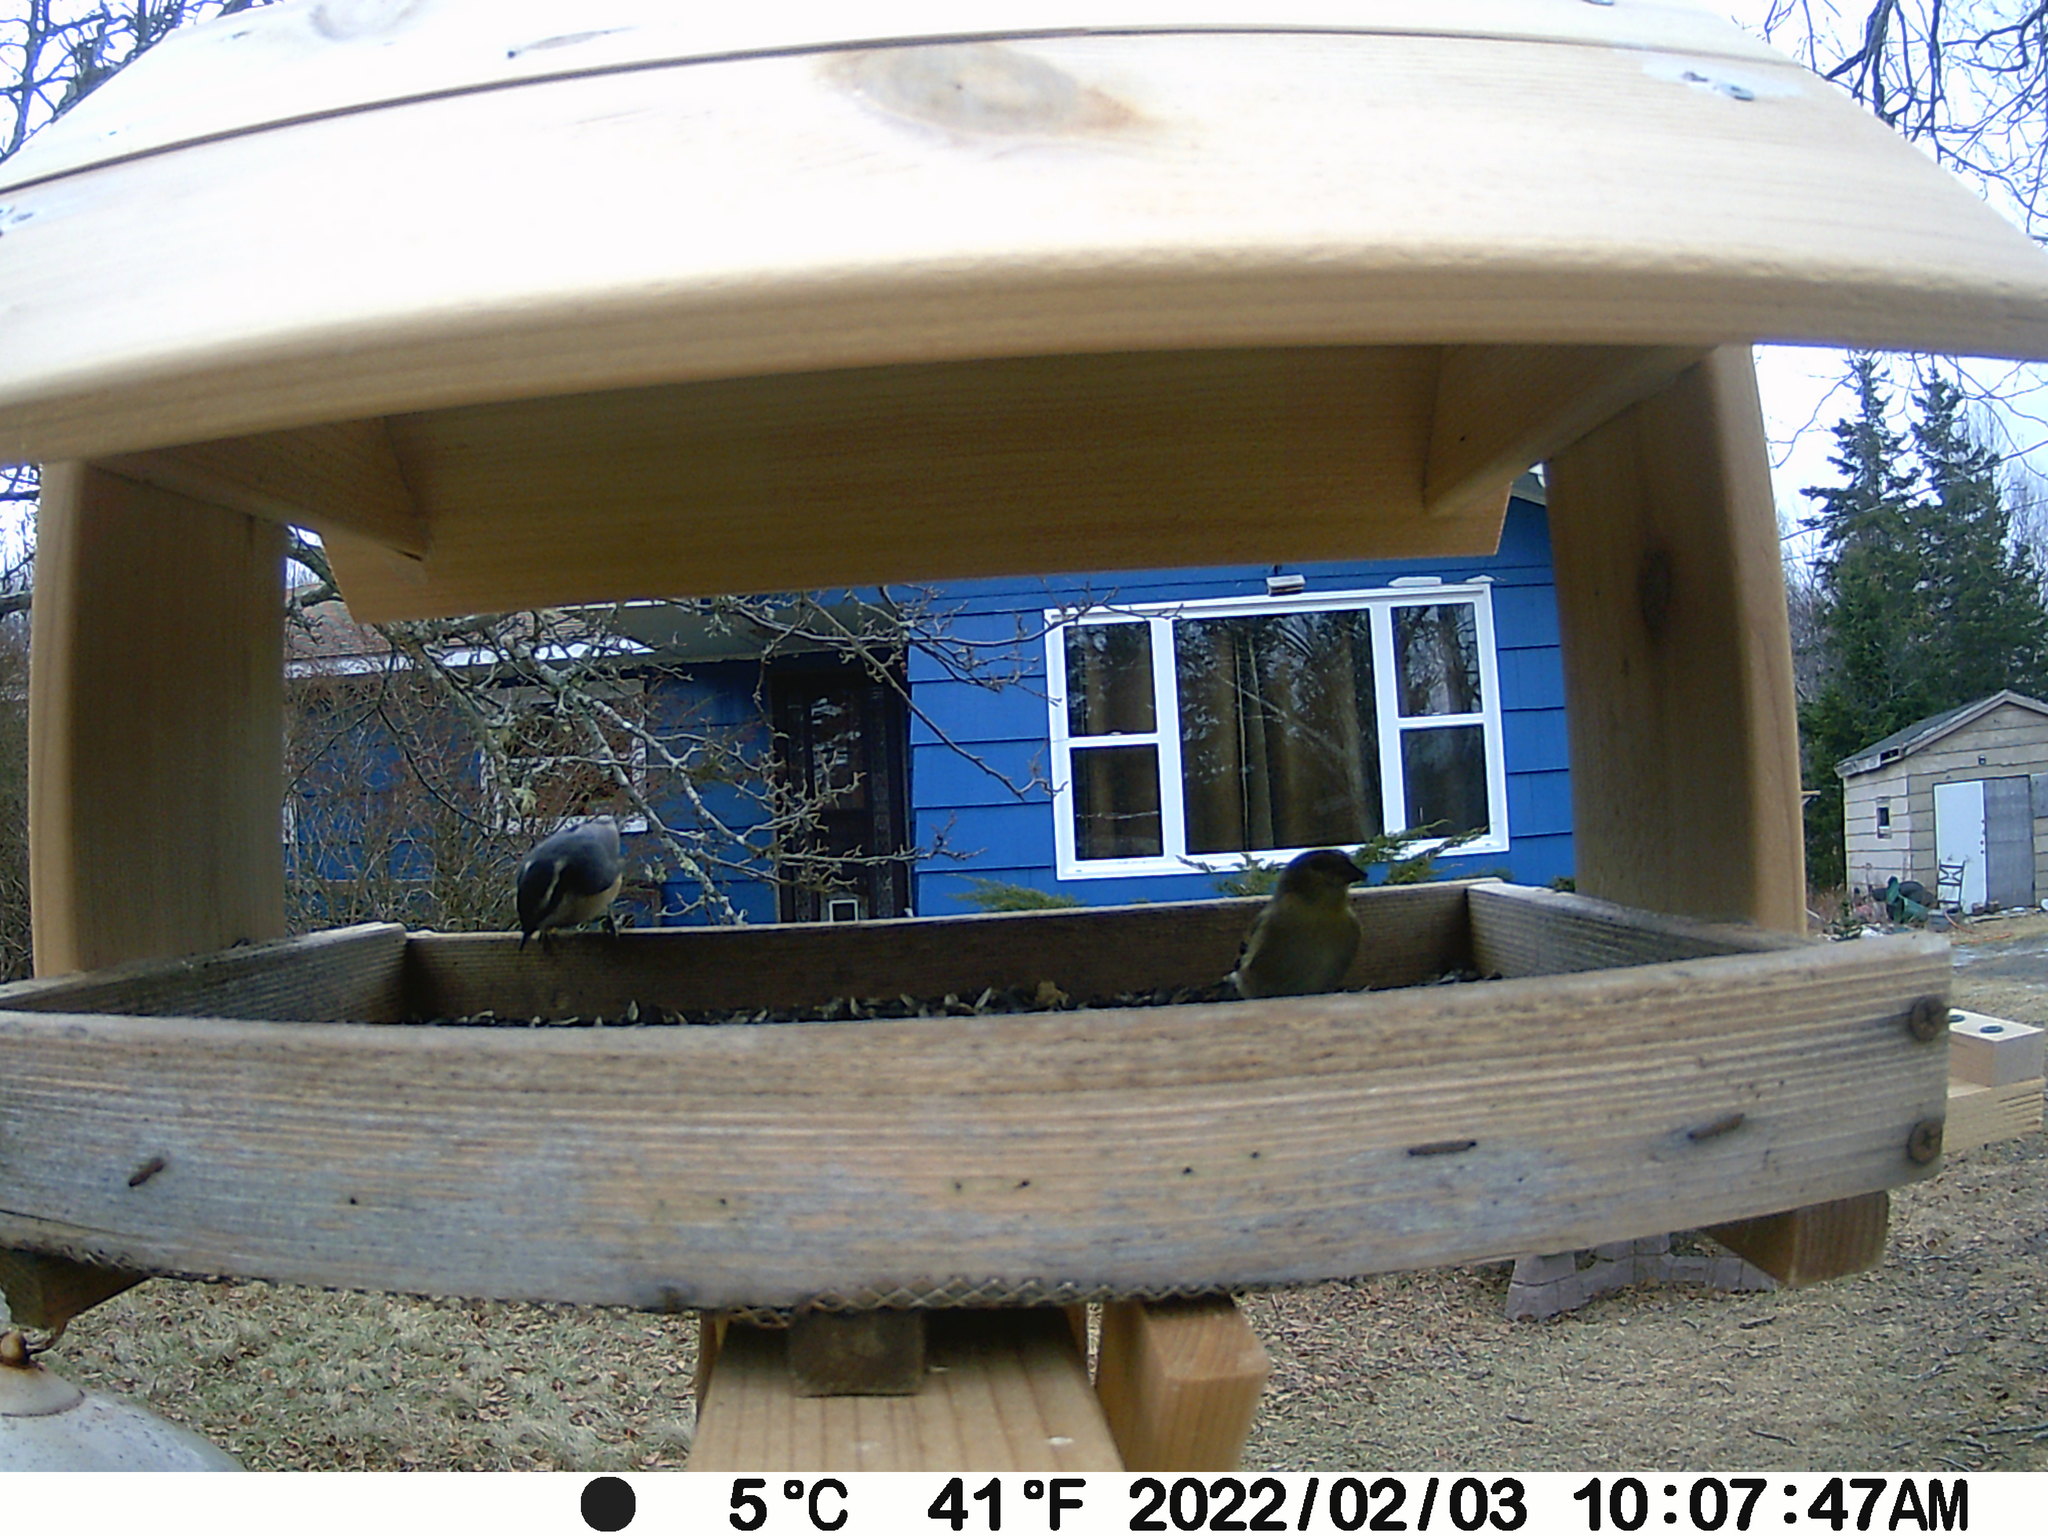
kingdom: Animalia
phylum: Chordata
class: Aves
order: Passeriformes
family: Sittidae
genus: Sitta
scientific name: Sitta canadensis
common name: Red-breasted nuthatch
